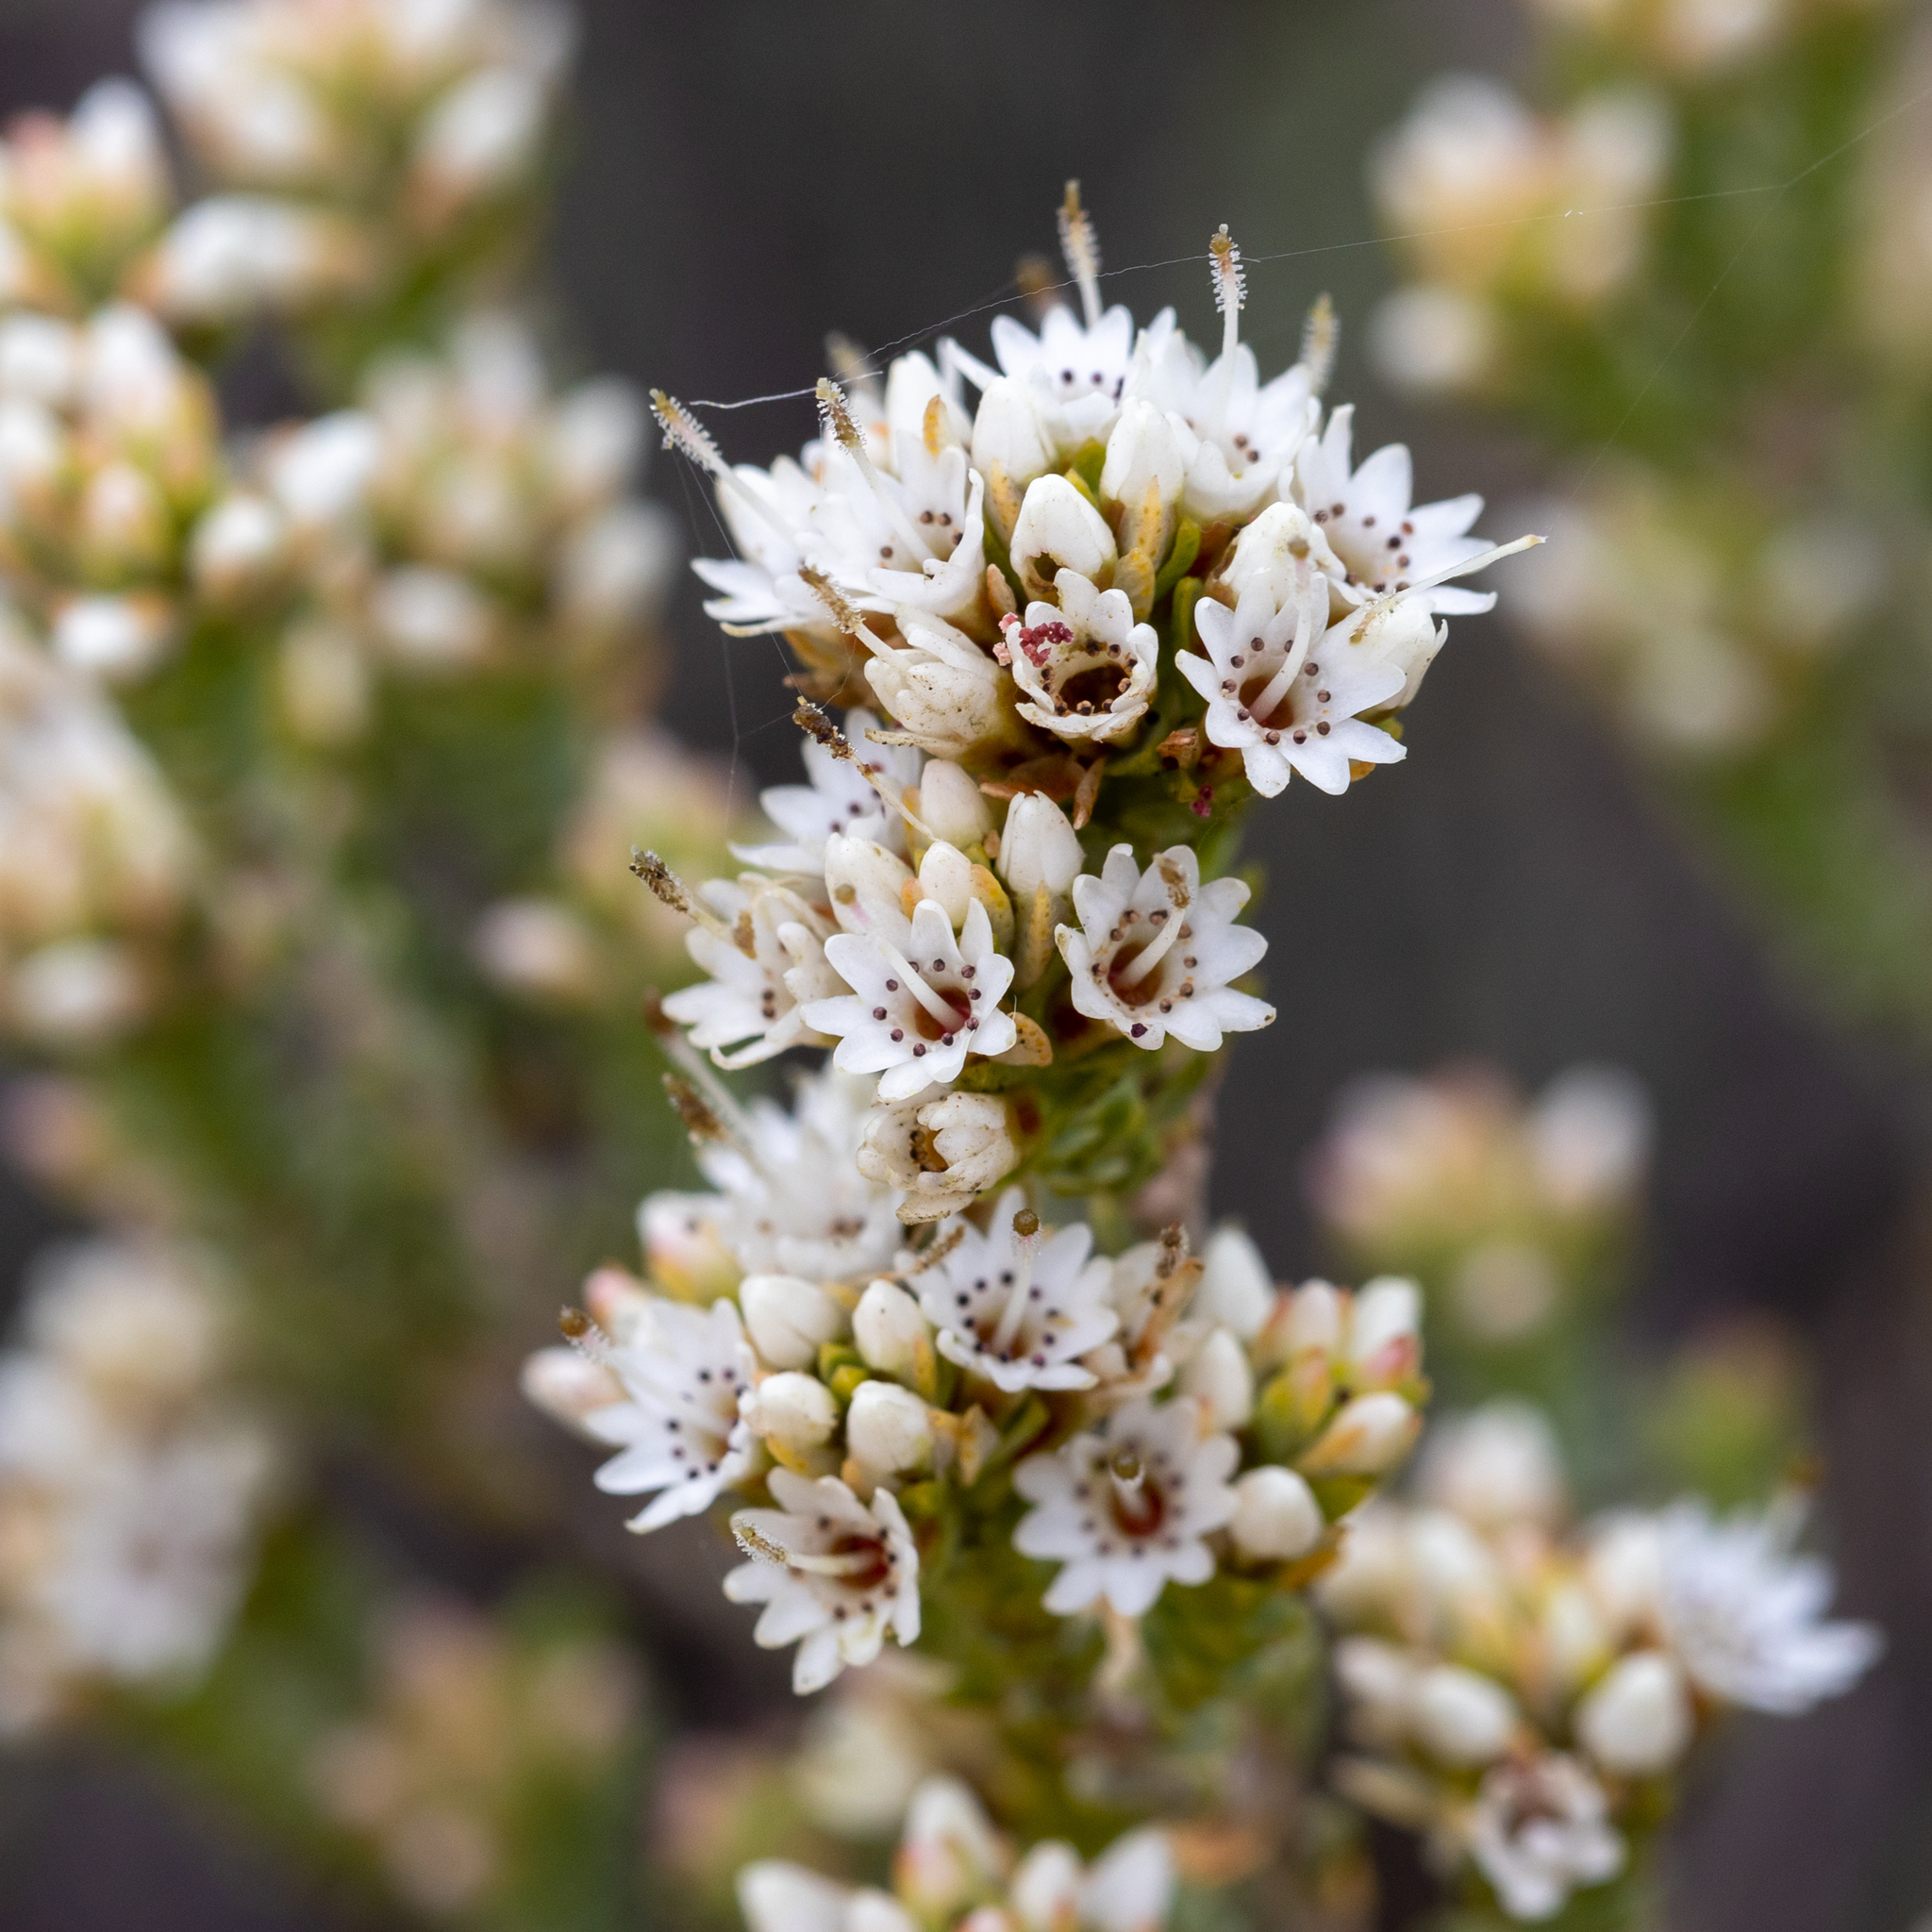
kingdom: Plantae
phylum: Tracheophyta
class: Magnoliopsida
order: Myrtales
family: Myrtaceae
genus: Darwinia
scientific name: Darwinia salina
